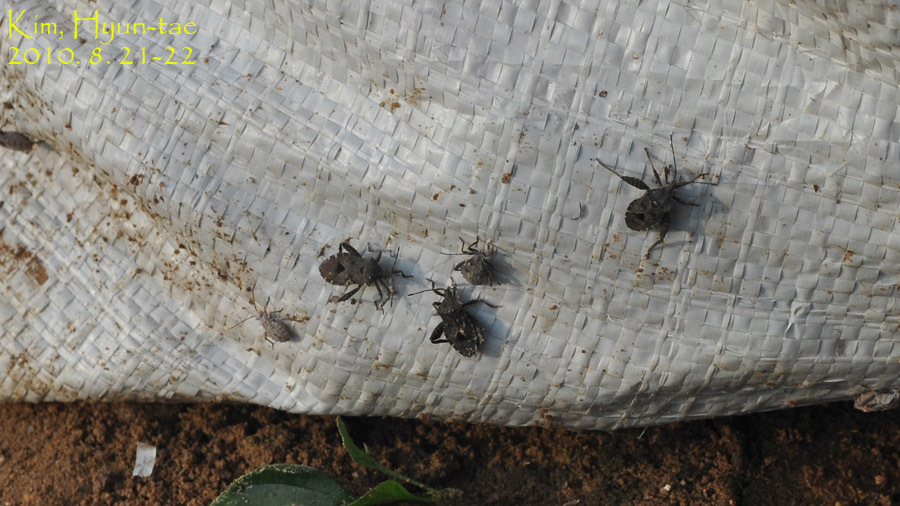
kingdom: Animalia
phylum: Arthropoda
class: Insecta
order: Hemiptera
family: Coreidae
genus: Acanthocoris
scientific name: Acanthocoris sordidus
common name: Winter cherry bug
